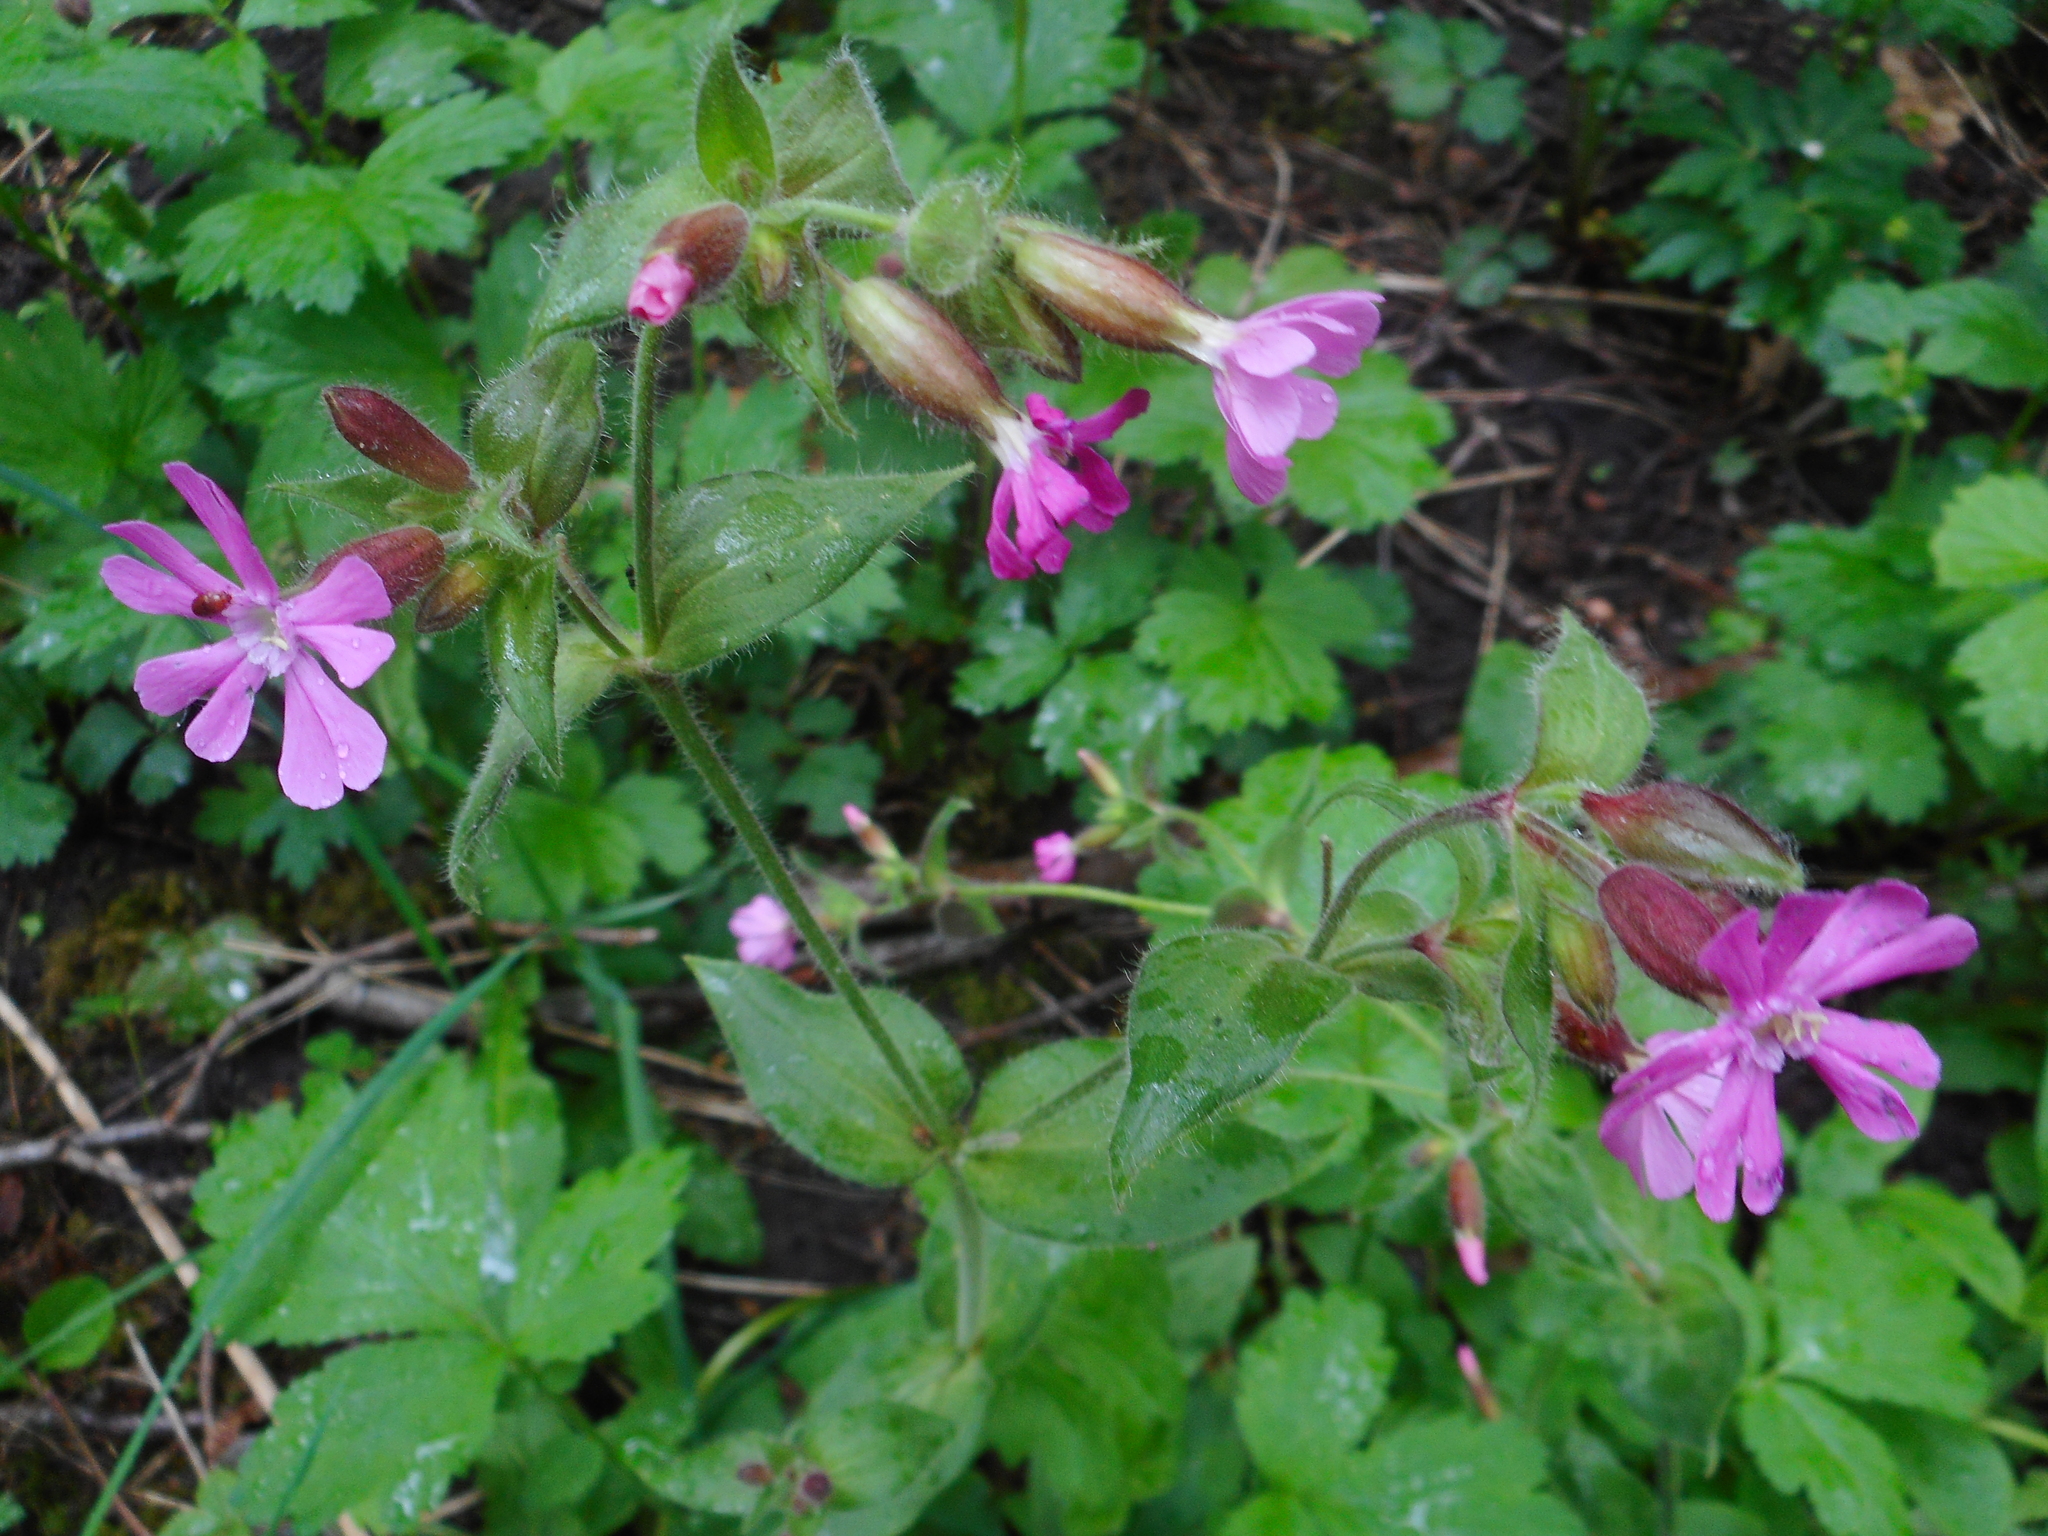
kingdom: Plantae
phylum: Tracheophyta
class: Magnoliopsida
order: Caryophyllales
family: Caryophyllaceae
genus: Silene
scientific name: Silene dioica
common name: Red campion
